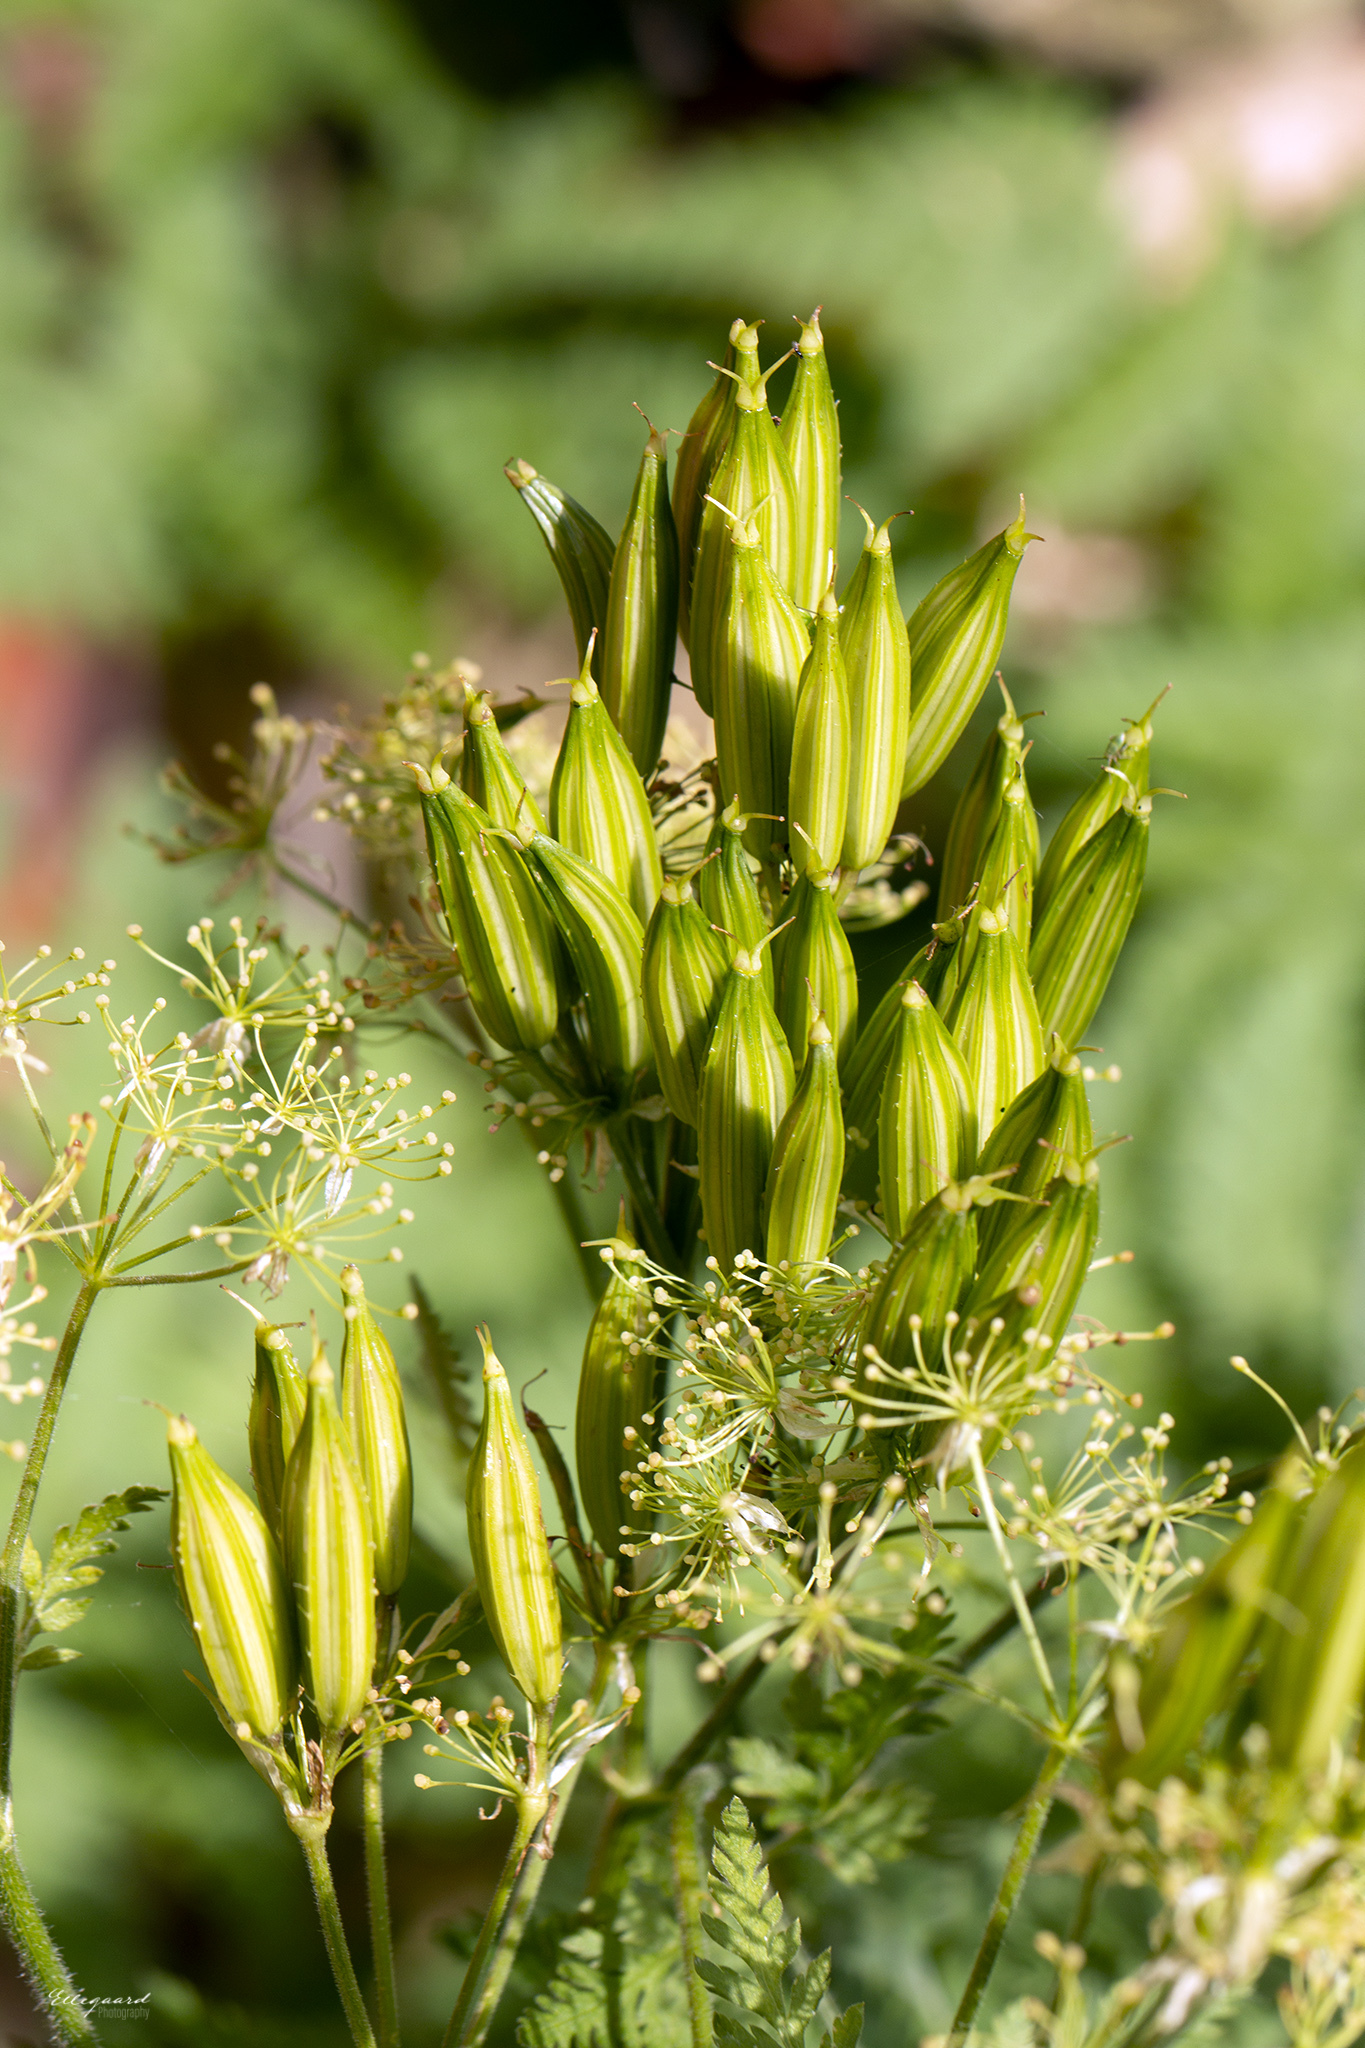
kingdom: Plantae
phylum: Tracheophyta
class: Magnoliopsida
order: Apiales
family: Apiaceae
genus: Myrrhis
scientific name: Myrrhis odorata
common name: Sweet cicely
